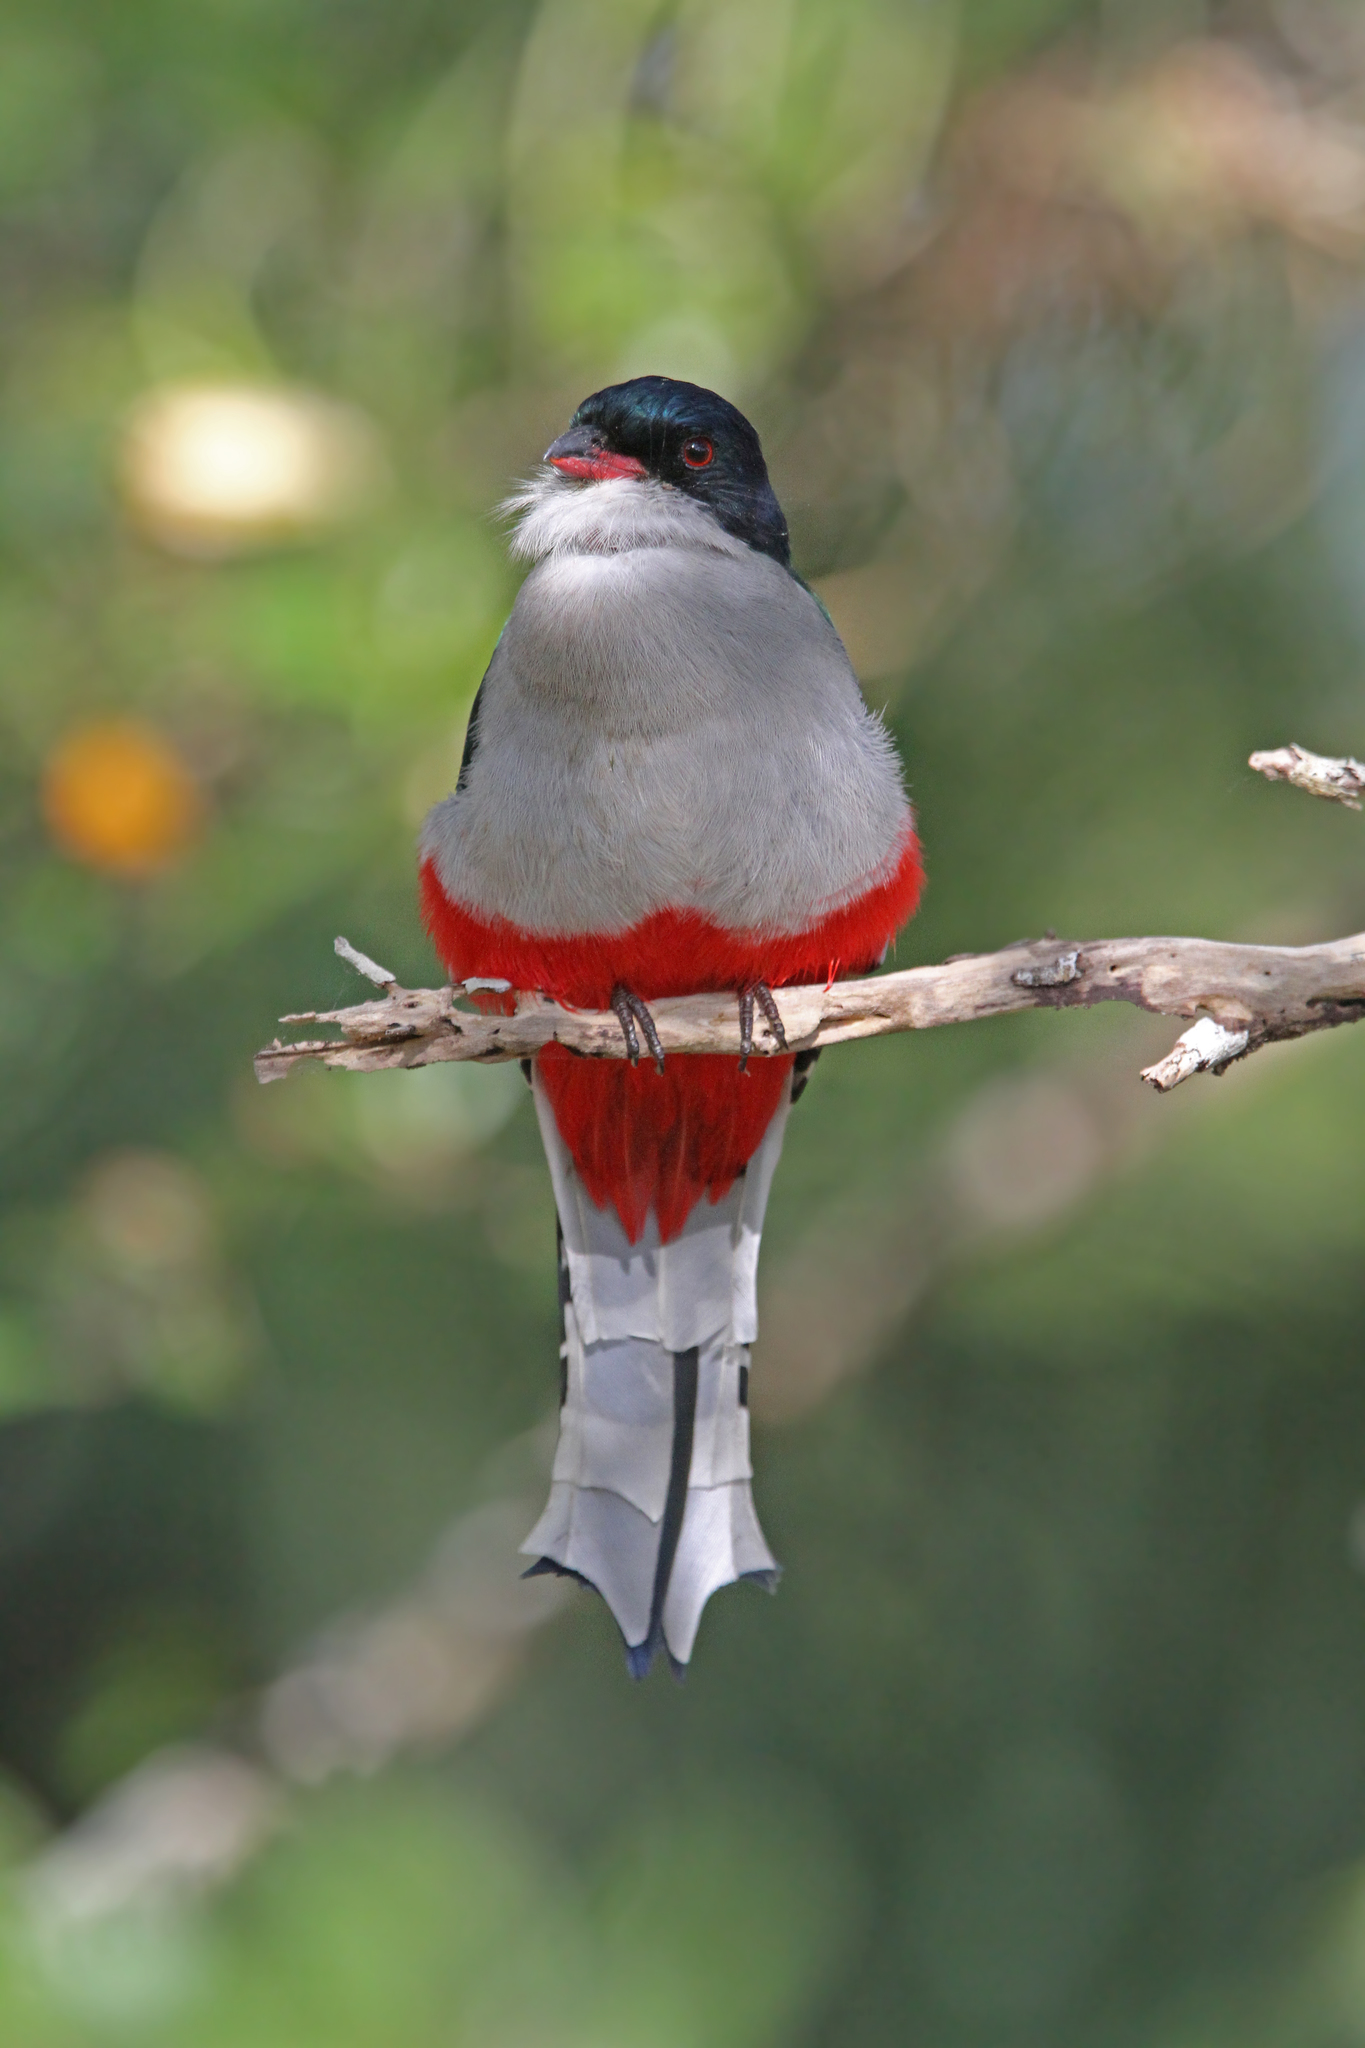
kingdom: Animalia
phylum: Chordata
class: Aves
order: Trogoniformes
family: Trogonidae
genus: Priotelus
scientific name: Priotelus temnurus
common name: Cuban trogon
